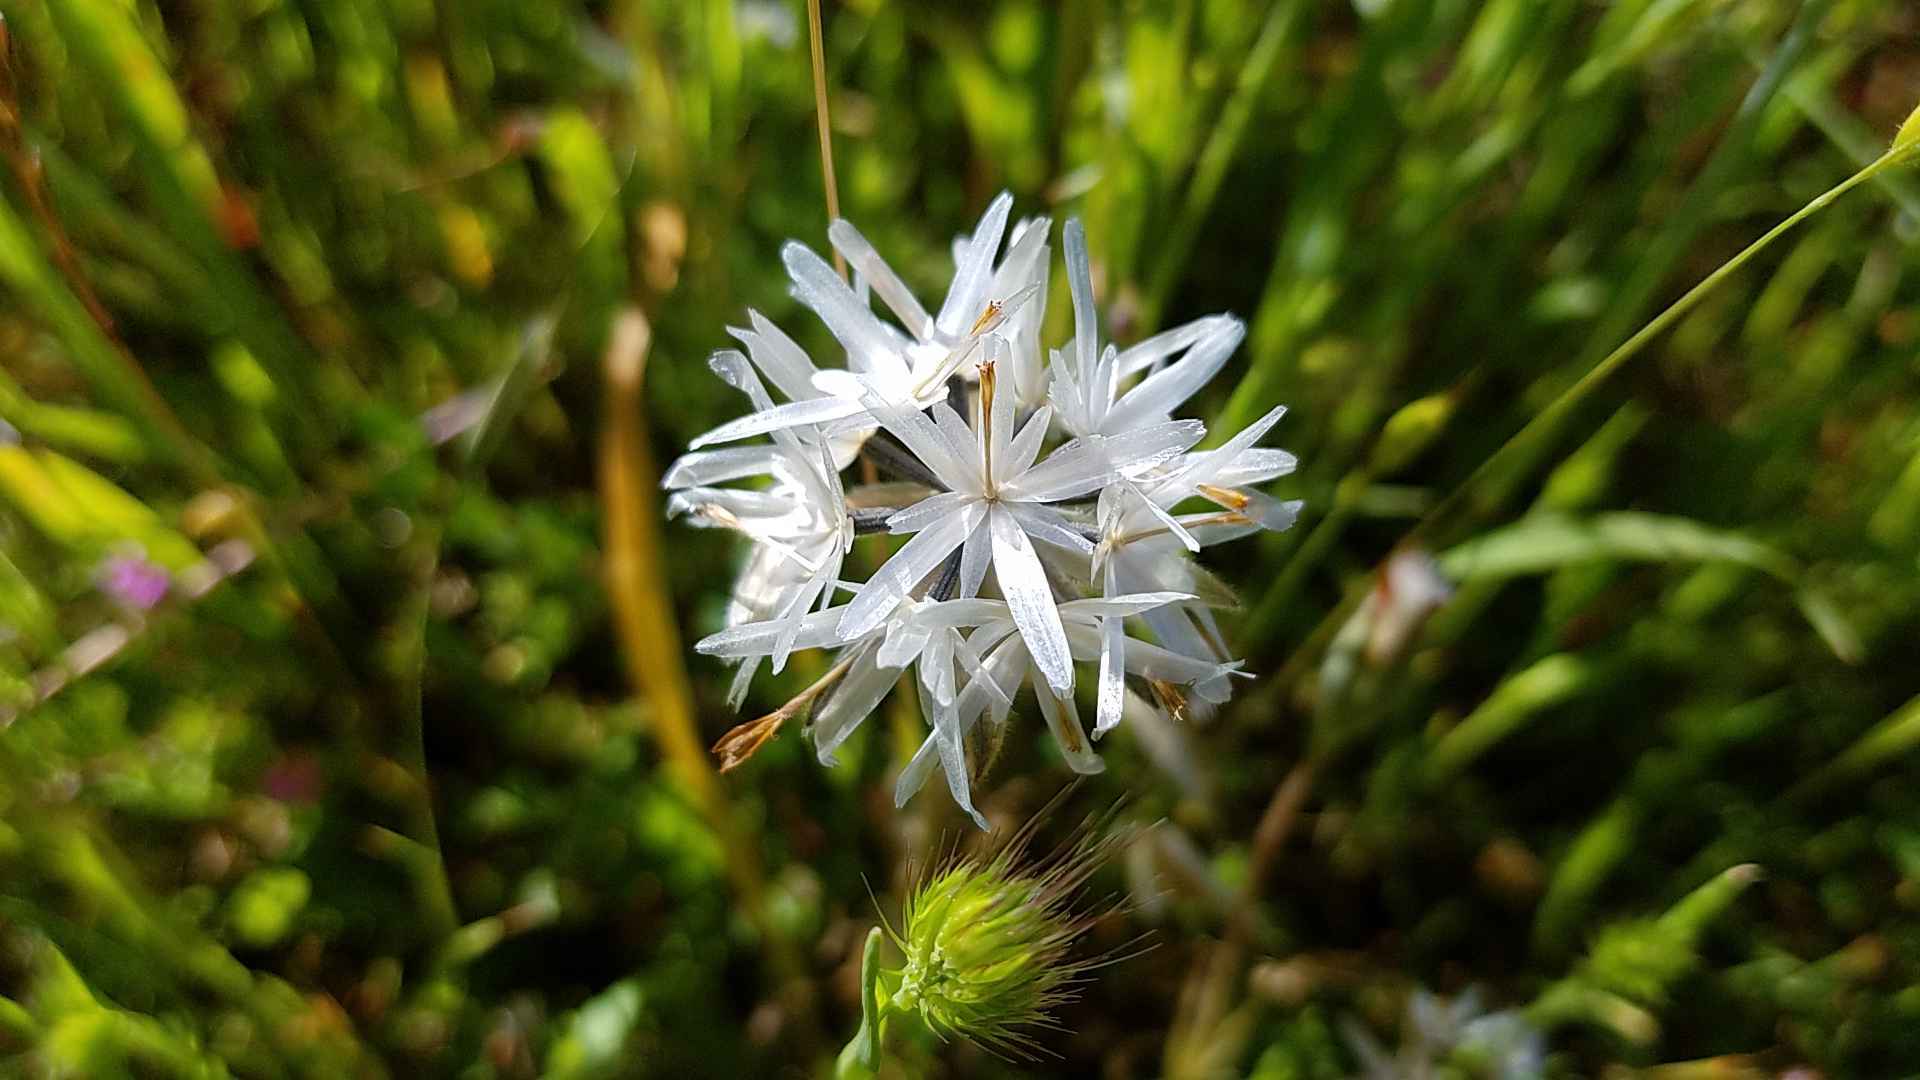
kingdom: Plantae
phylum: Tracheophyta
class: Magnoliopsida
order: Asterales
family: Asteraceae
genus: Achyrachaena
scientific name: Achyrachaena mollis
